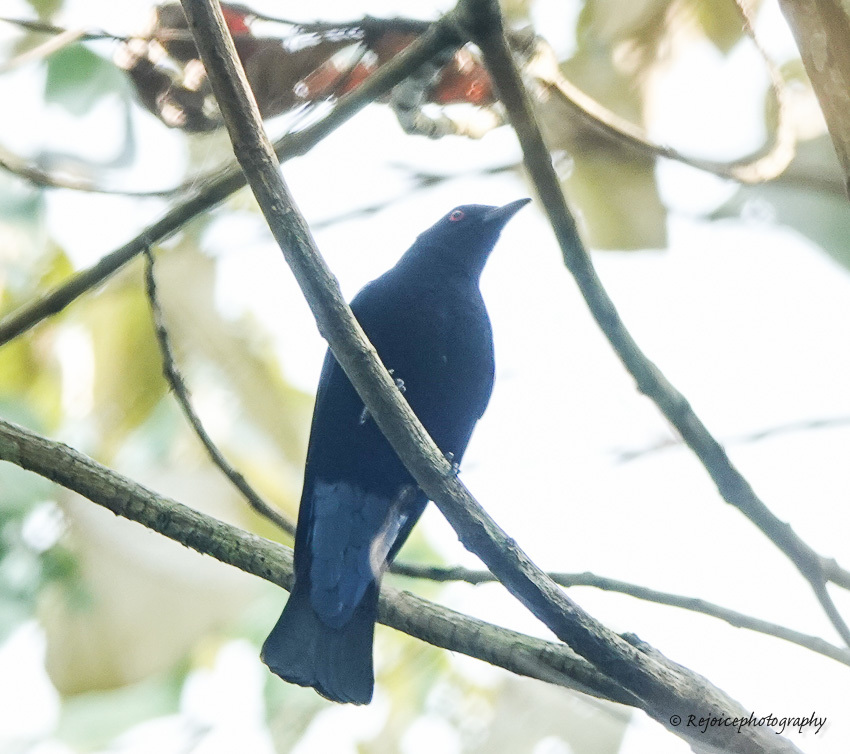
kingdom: Animalia
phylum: Chordata
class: Aves
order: Passeriformes
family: Irenidae
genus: Irena
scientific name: Irena puella
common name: Asian fairy-bluebird
